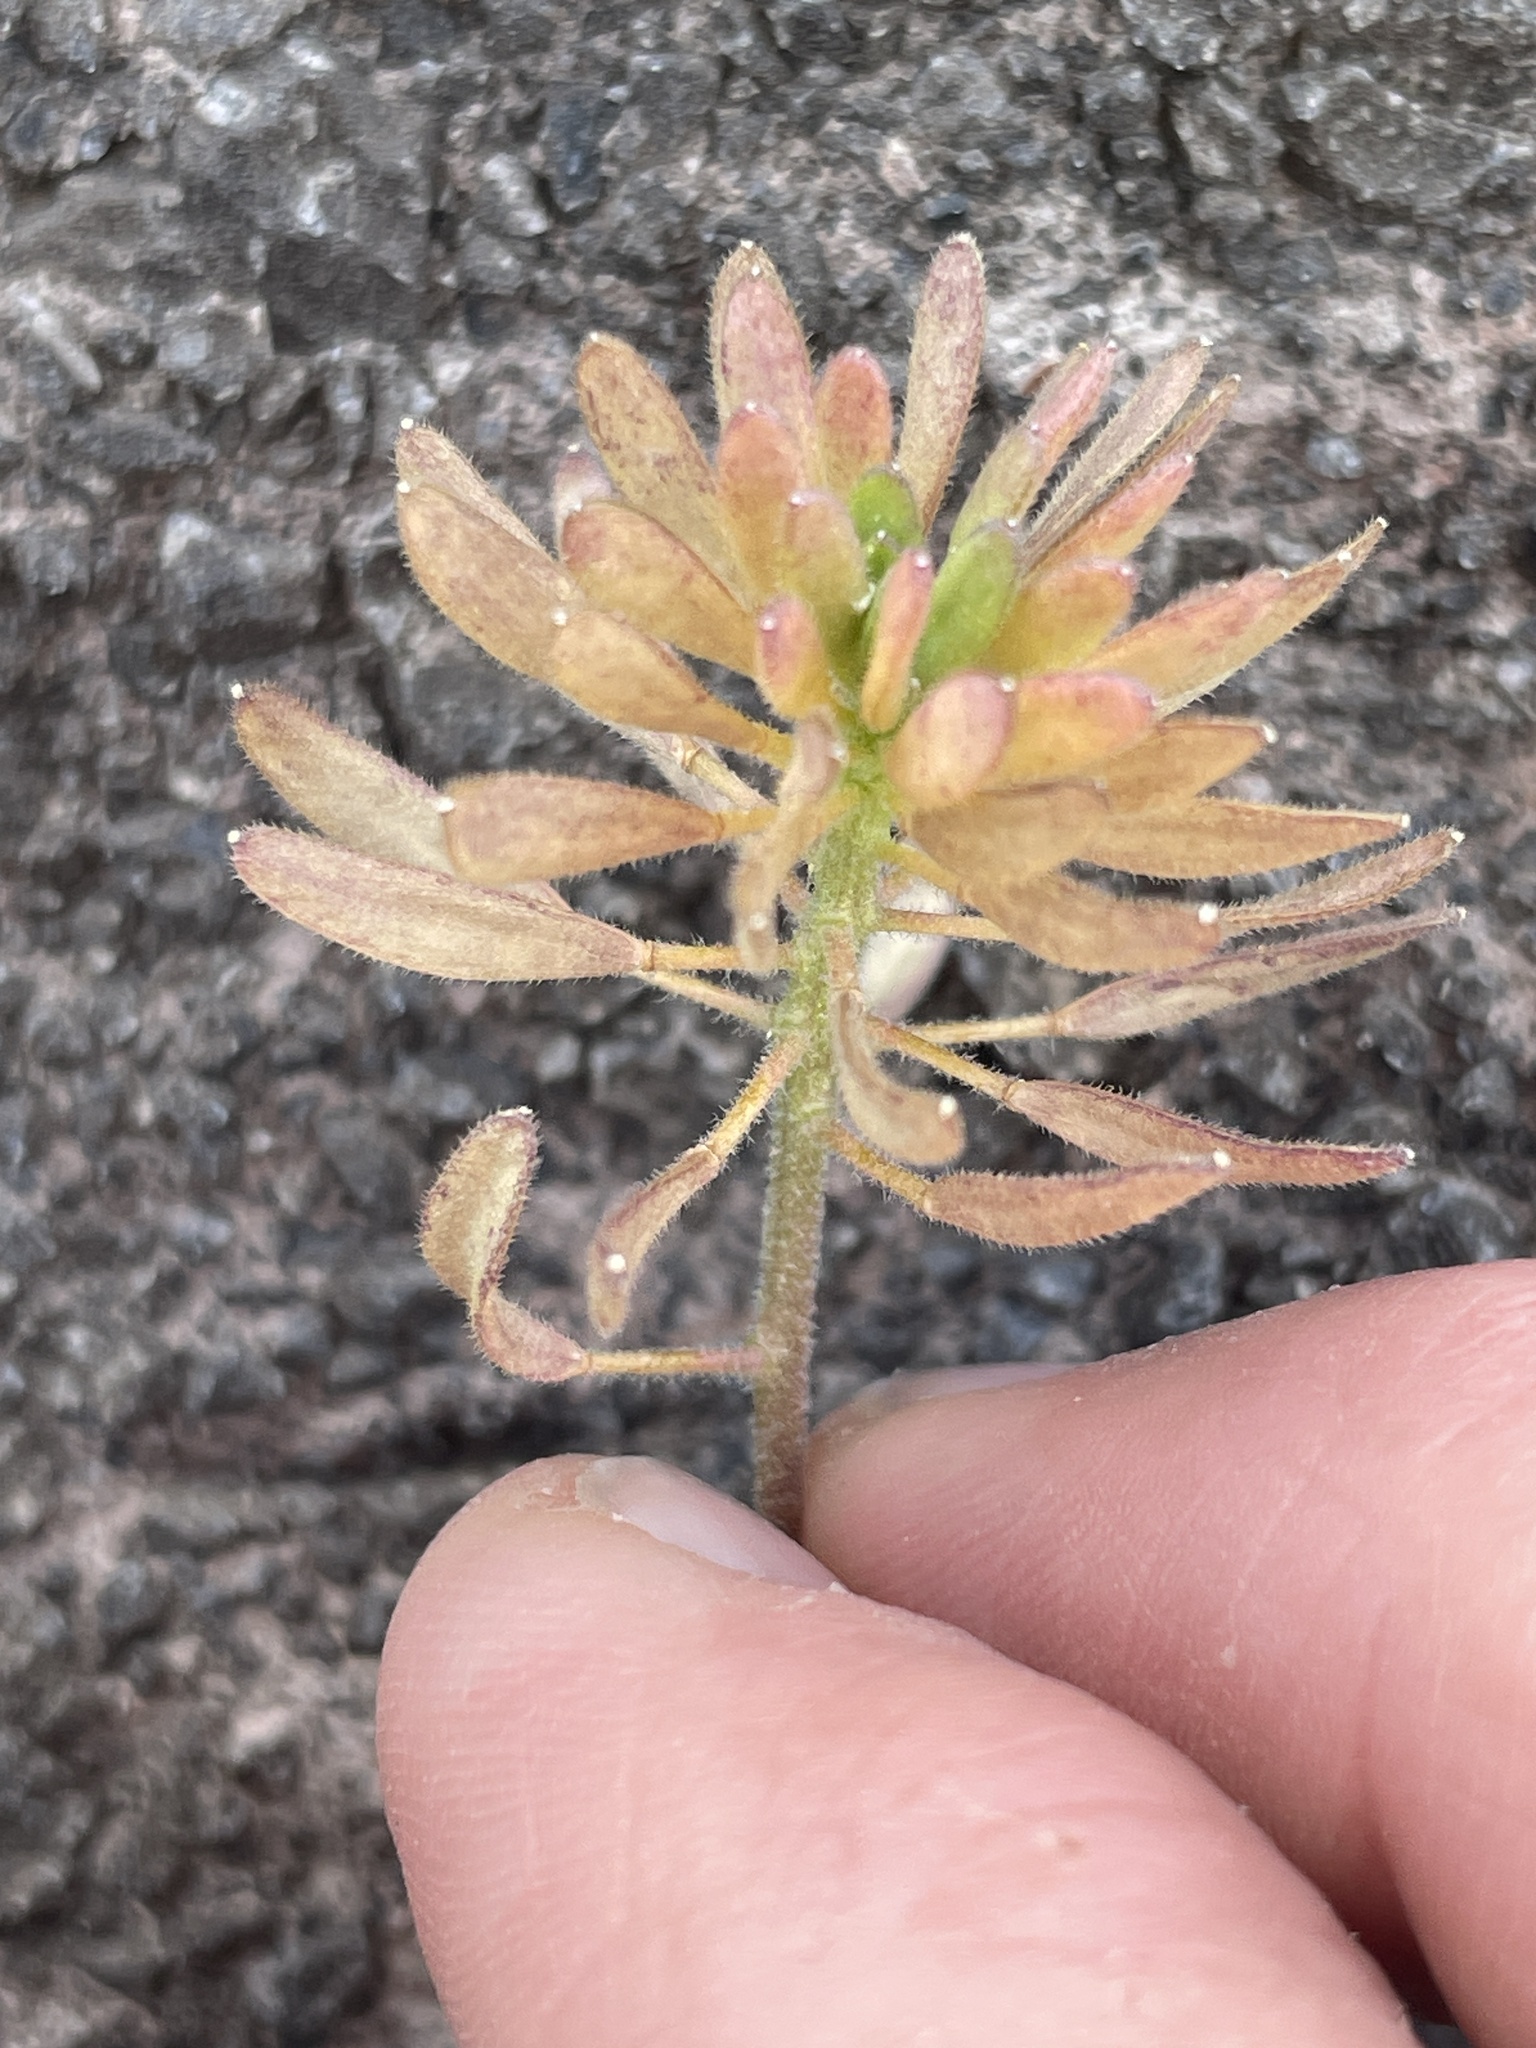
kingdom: Plantae
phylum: Tracheophyta
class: Magnoliopsida
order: Brassicales
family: Brassicaceae
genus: Tomostima
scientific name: Tomostima cuneifolia
